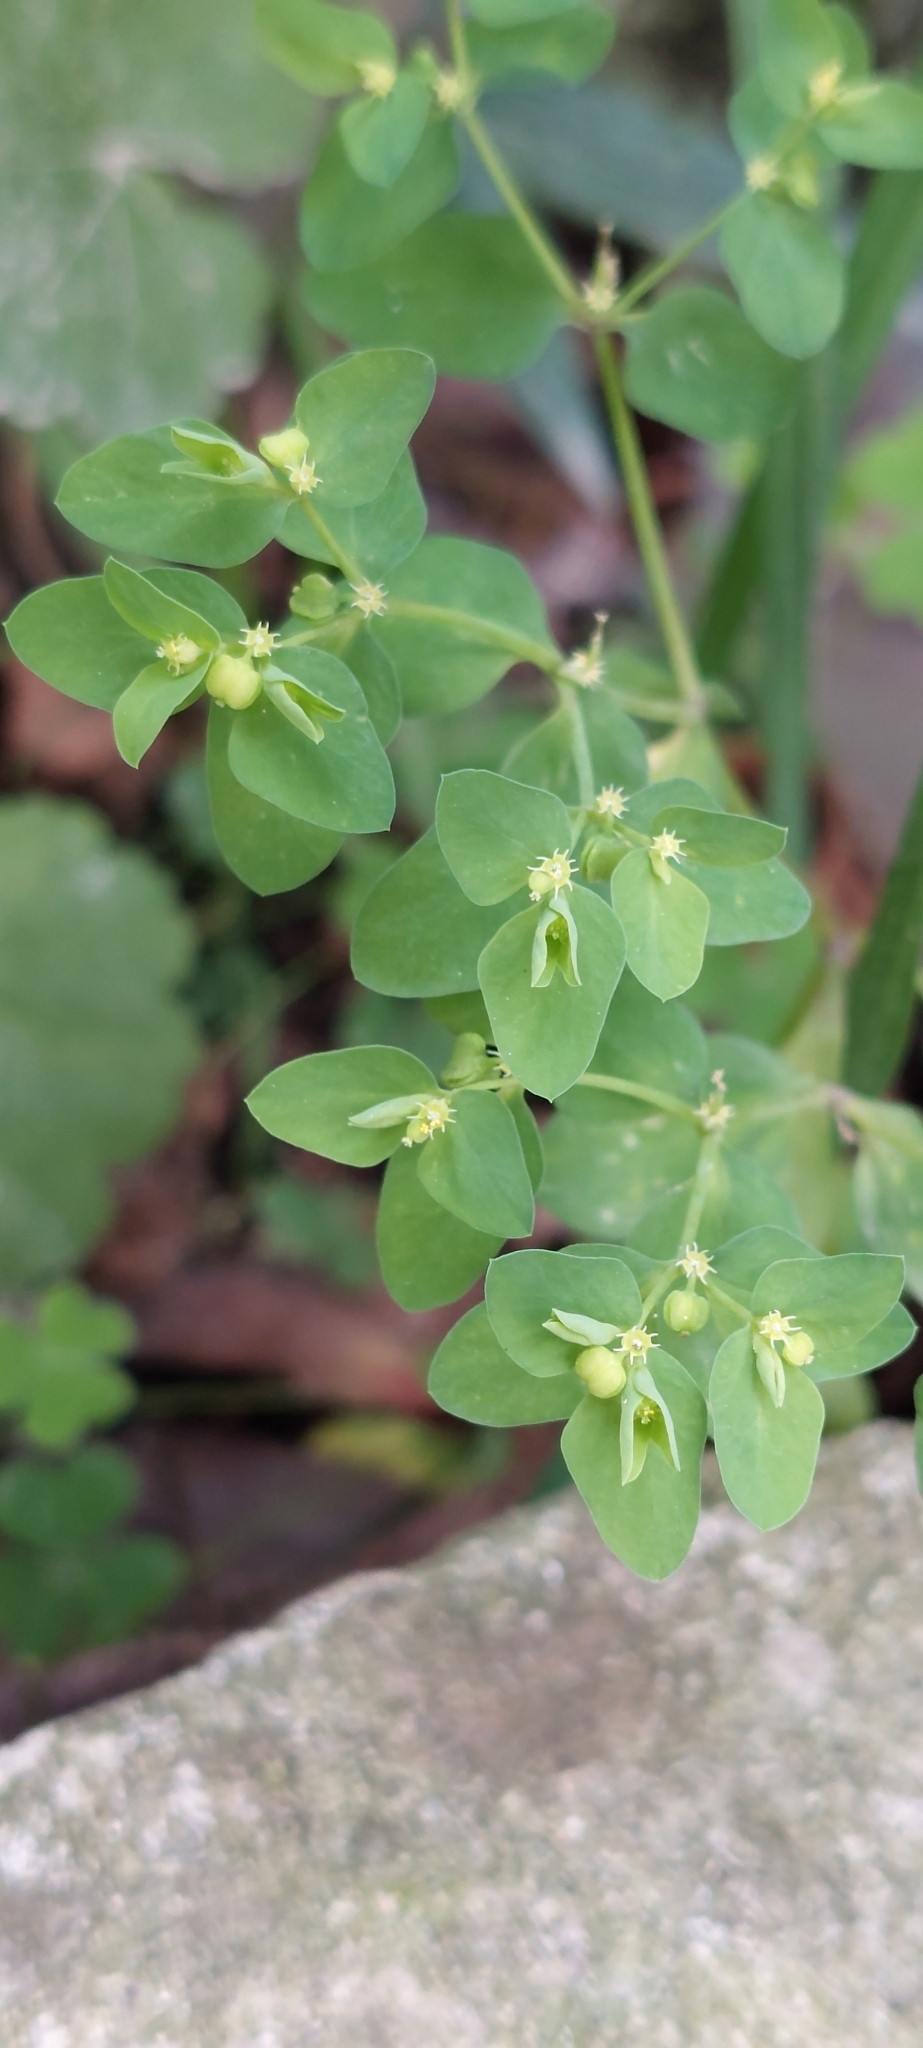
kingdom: Plantae
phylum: Tracheophyta
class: Magnoliopsida
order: Malpighiales
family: Euphorbiaceae
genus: Euphorbia
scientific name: Euphorbia peplus
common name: Petty spurge
